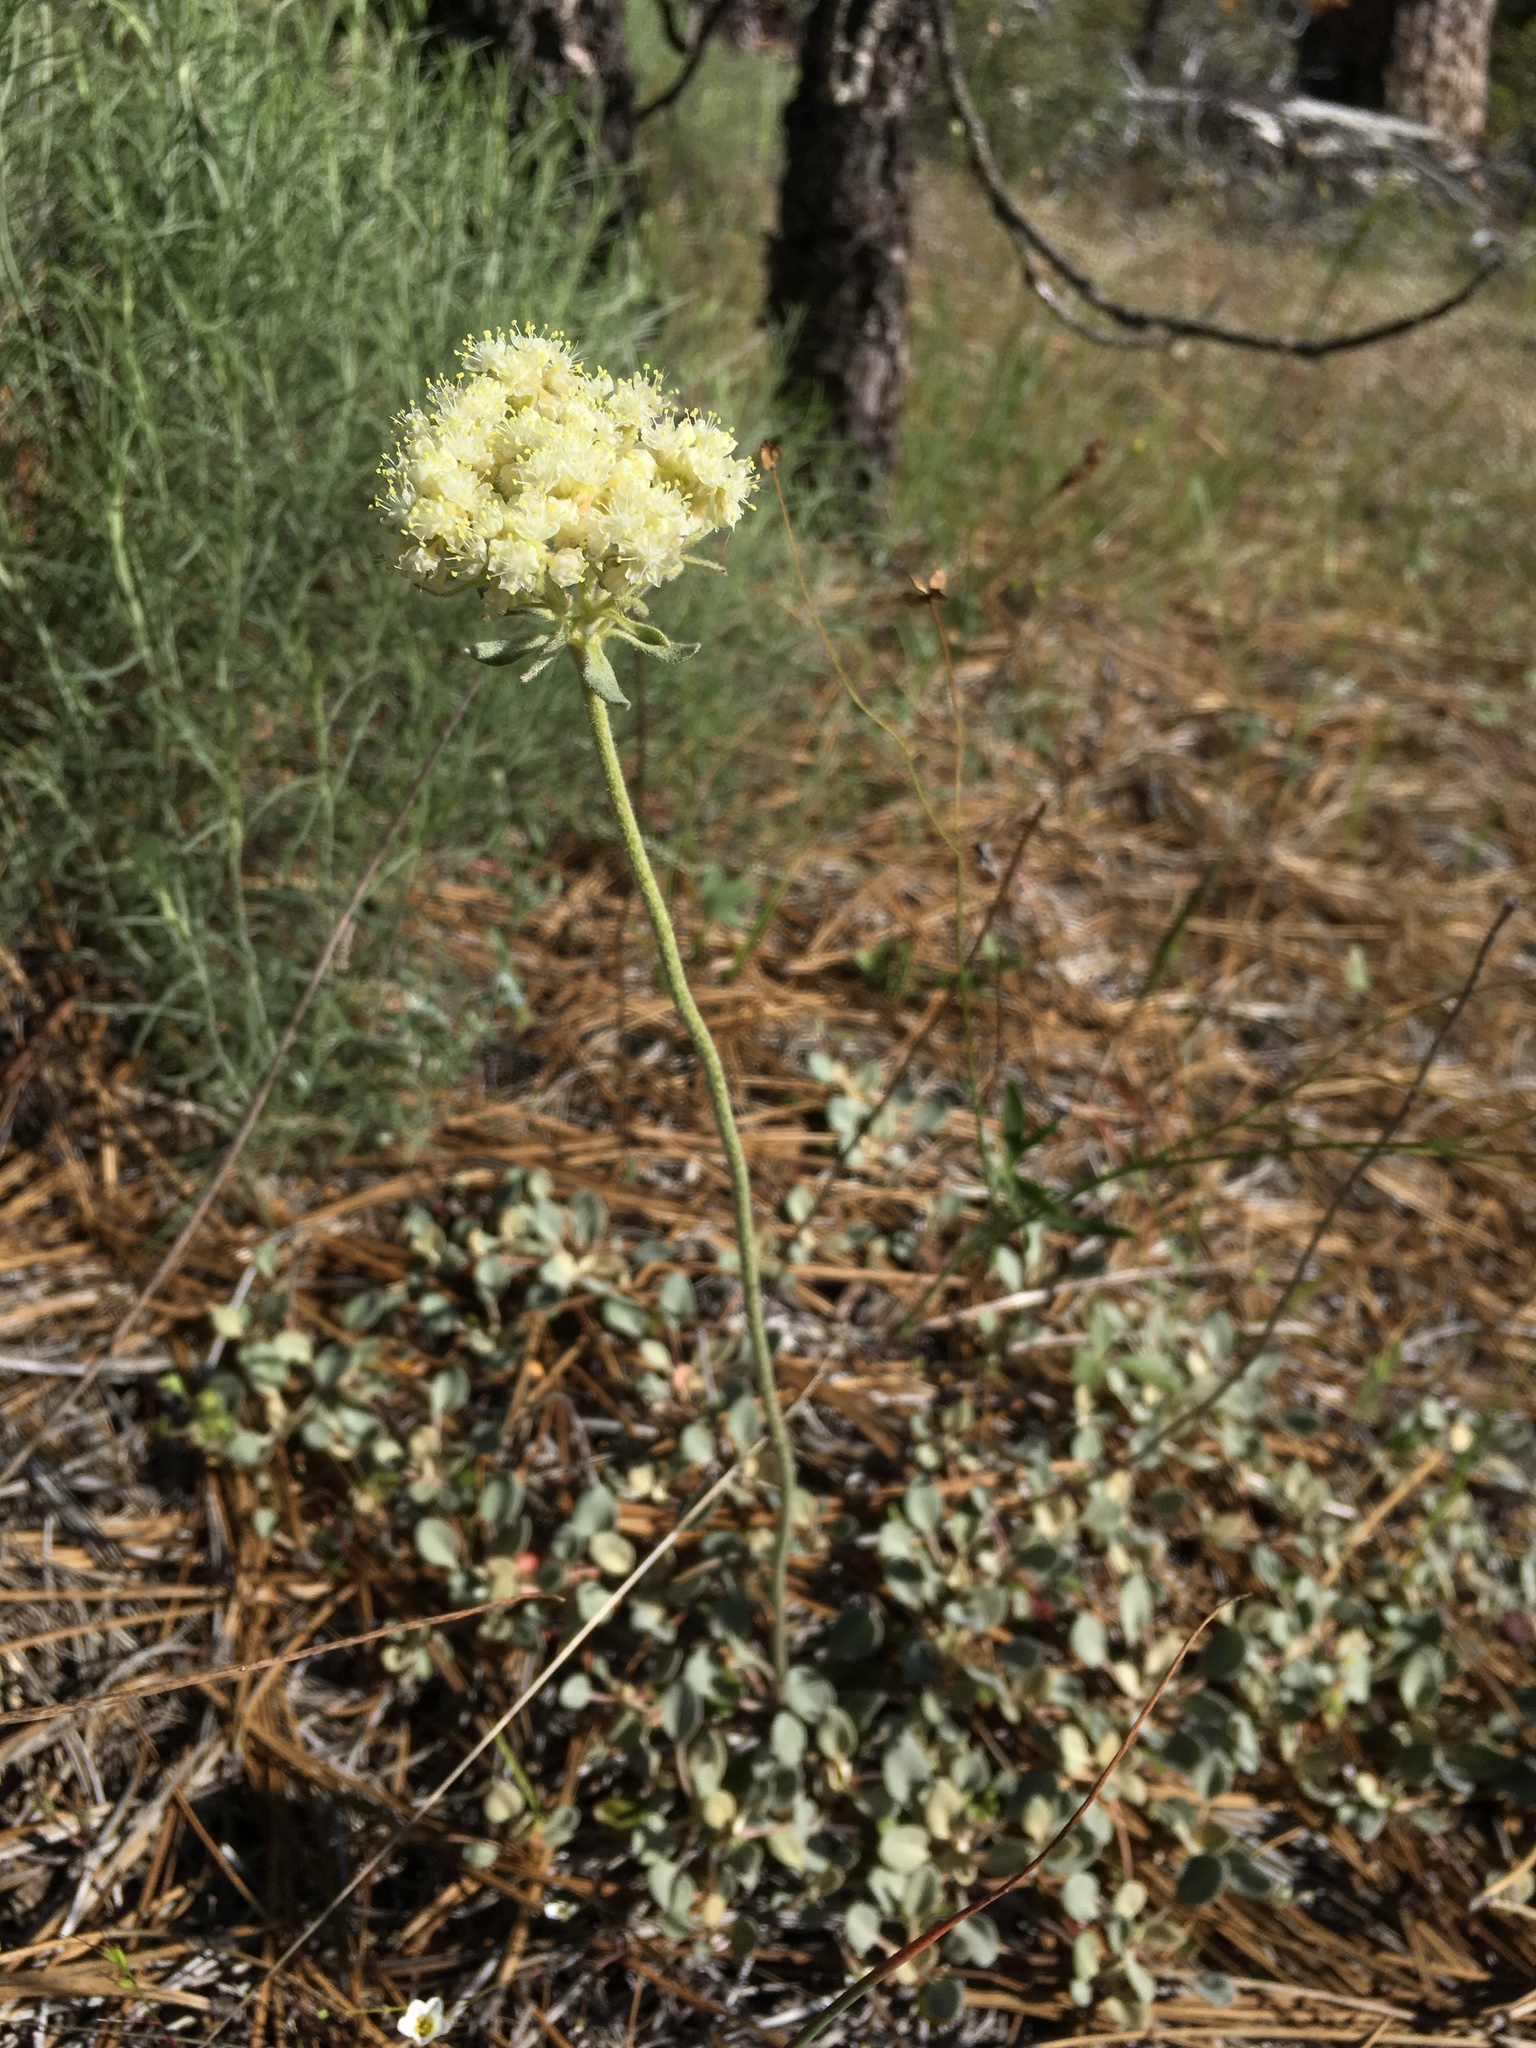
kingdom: Plantae
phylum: Tracheophyta
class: Magnoliopsida
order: Caryophyllales
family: Polygonaceae
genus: Eriogonum
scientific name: Eriogonum ursinum
